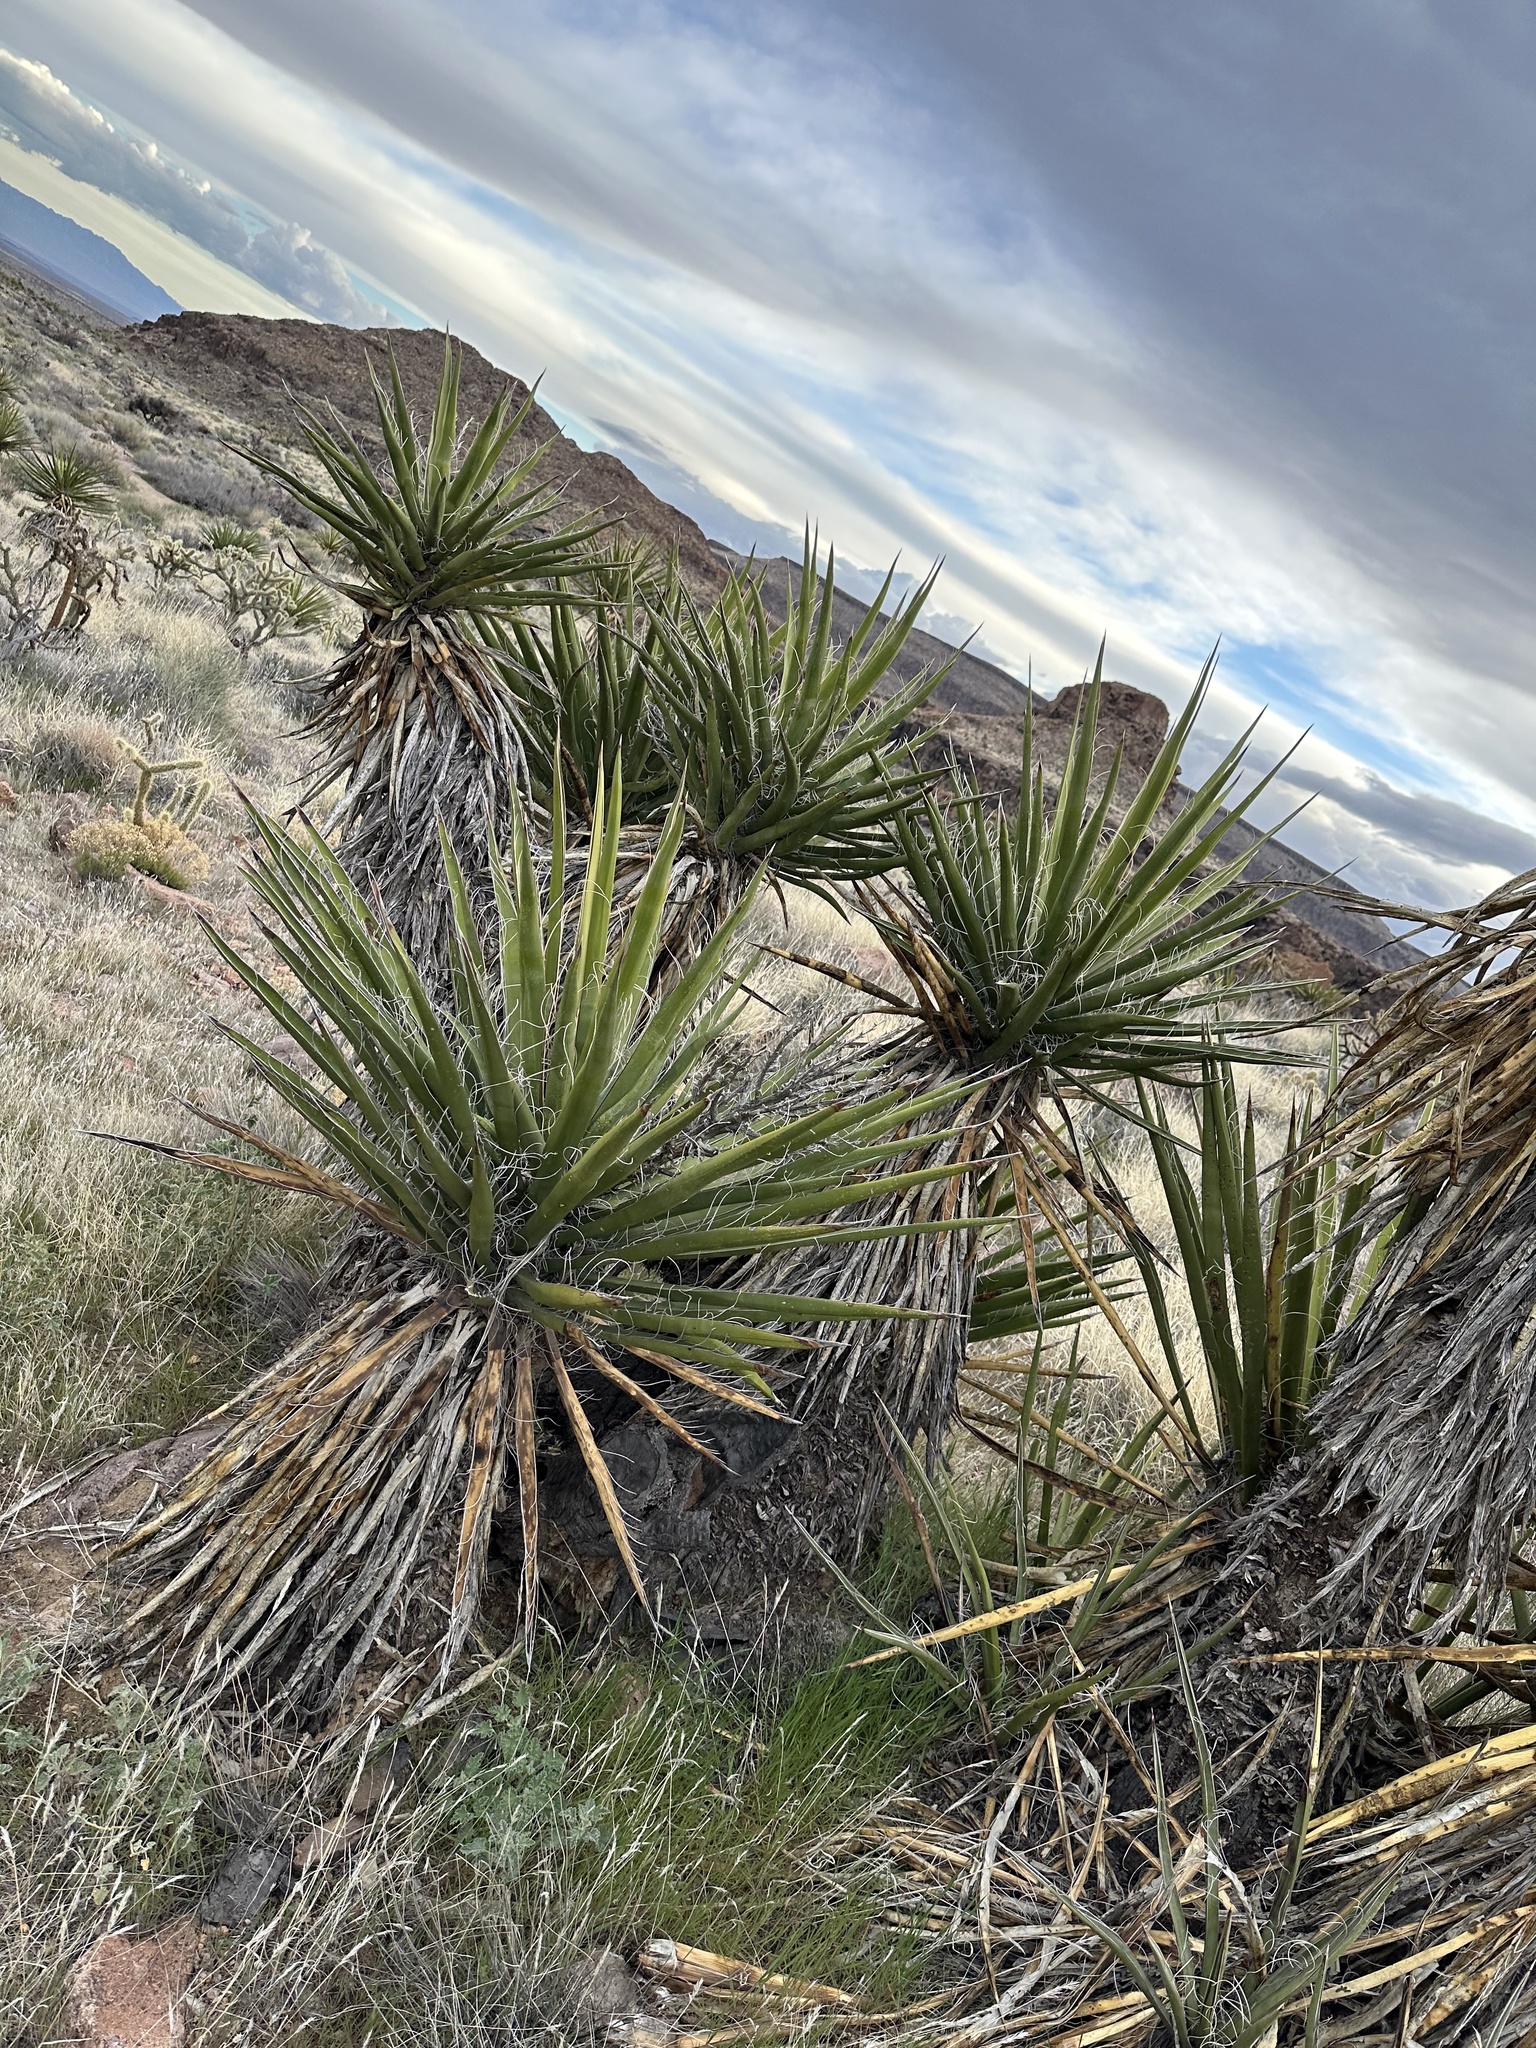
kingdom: Plantae
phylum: Tracheophyta
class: Liliopsida
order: Asparagales
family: Asparagaceae
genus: Yucca
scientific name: Yucca schidigera
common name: Mojave yucca
